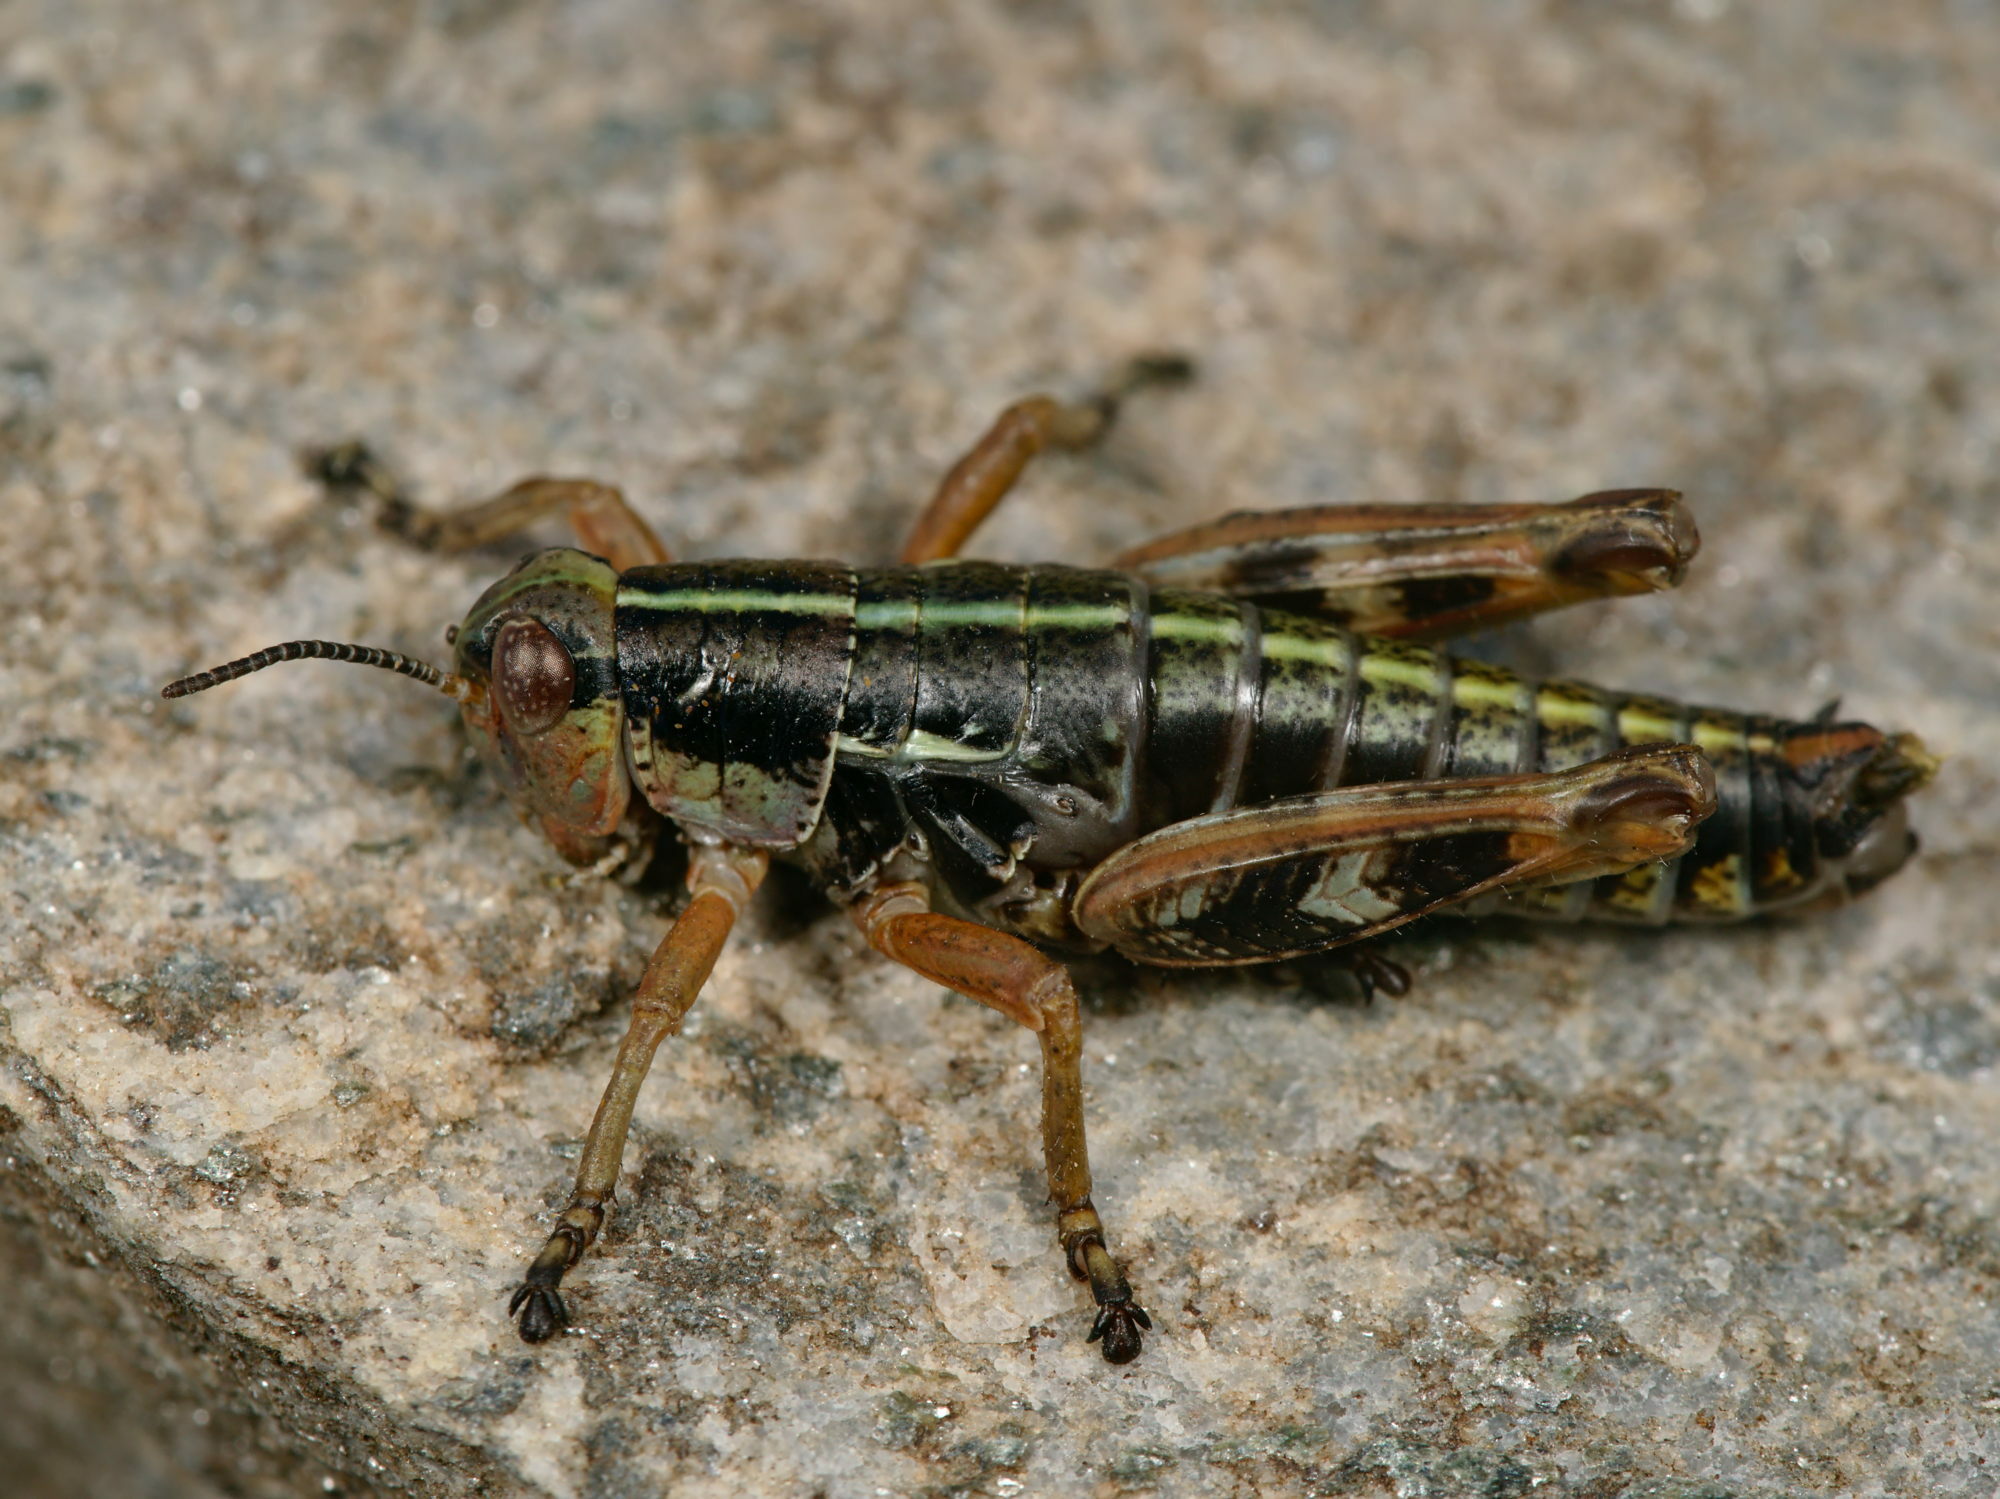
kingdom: Animalia
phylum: Arthropoda
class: Insecta
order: Orthoptera
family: Acrididae
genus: Epipodisma
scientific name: Epipodisma pedemontana
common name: Piedmont mountain grasshopper
